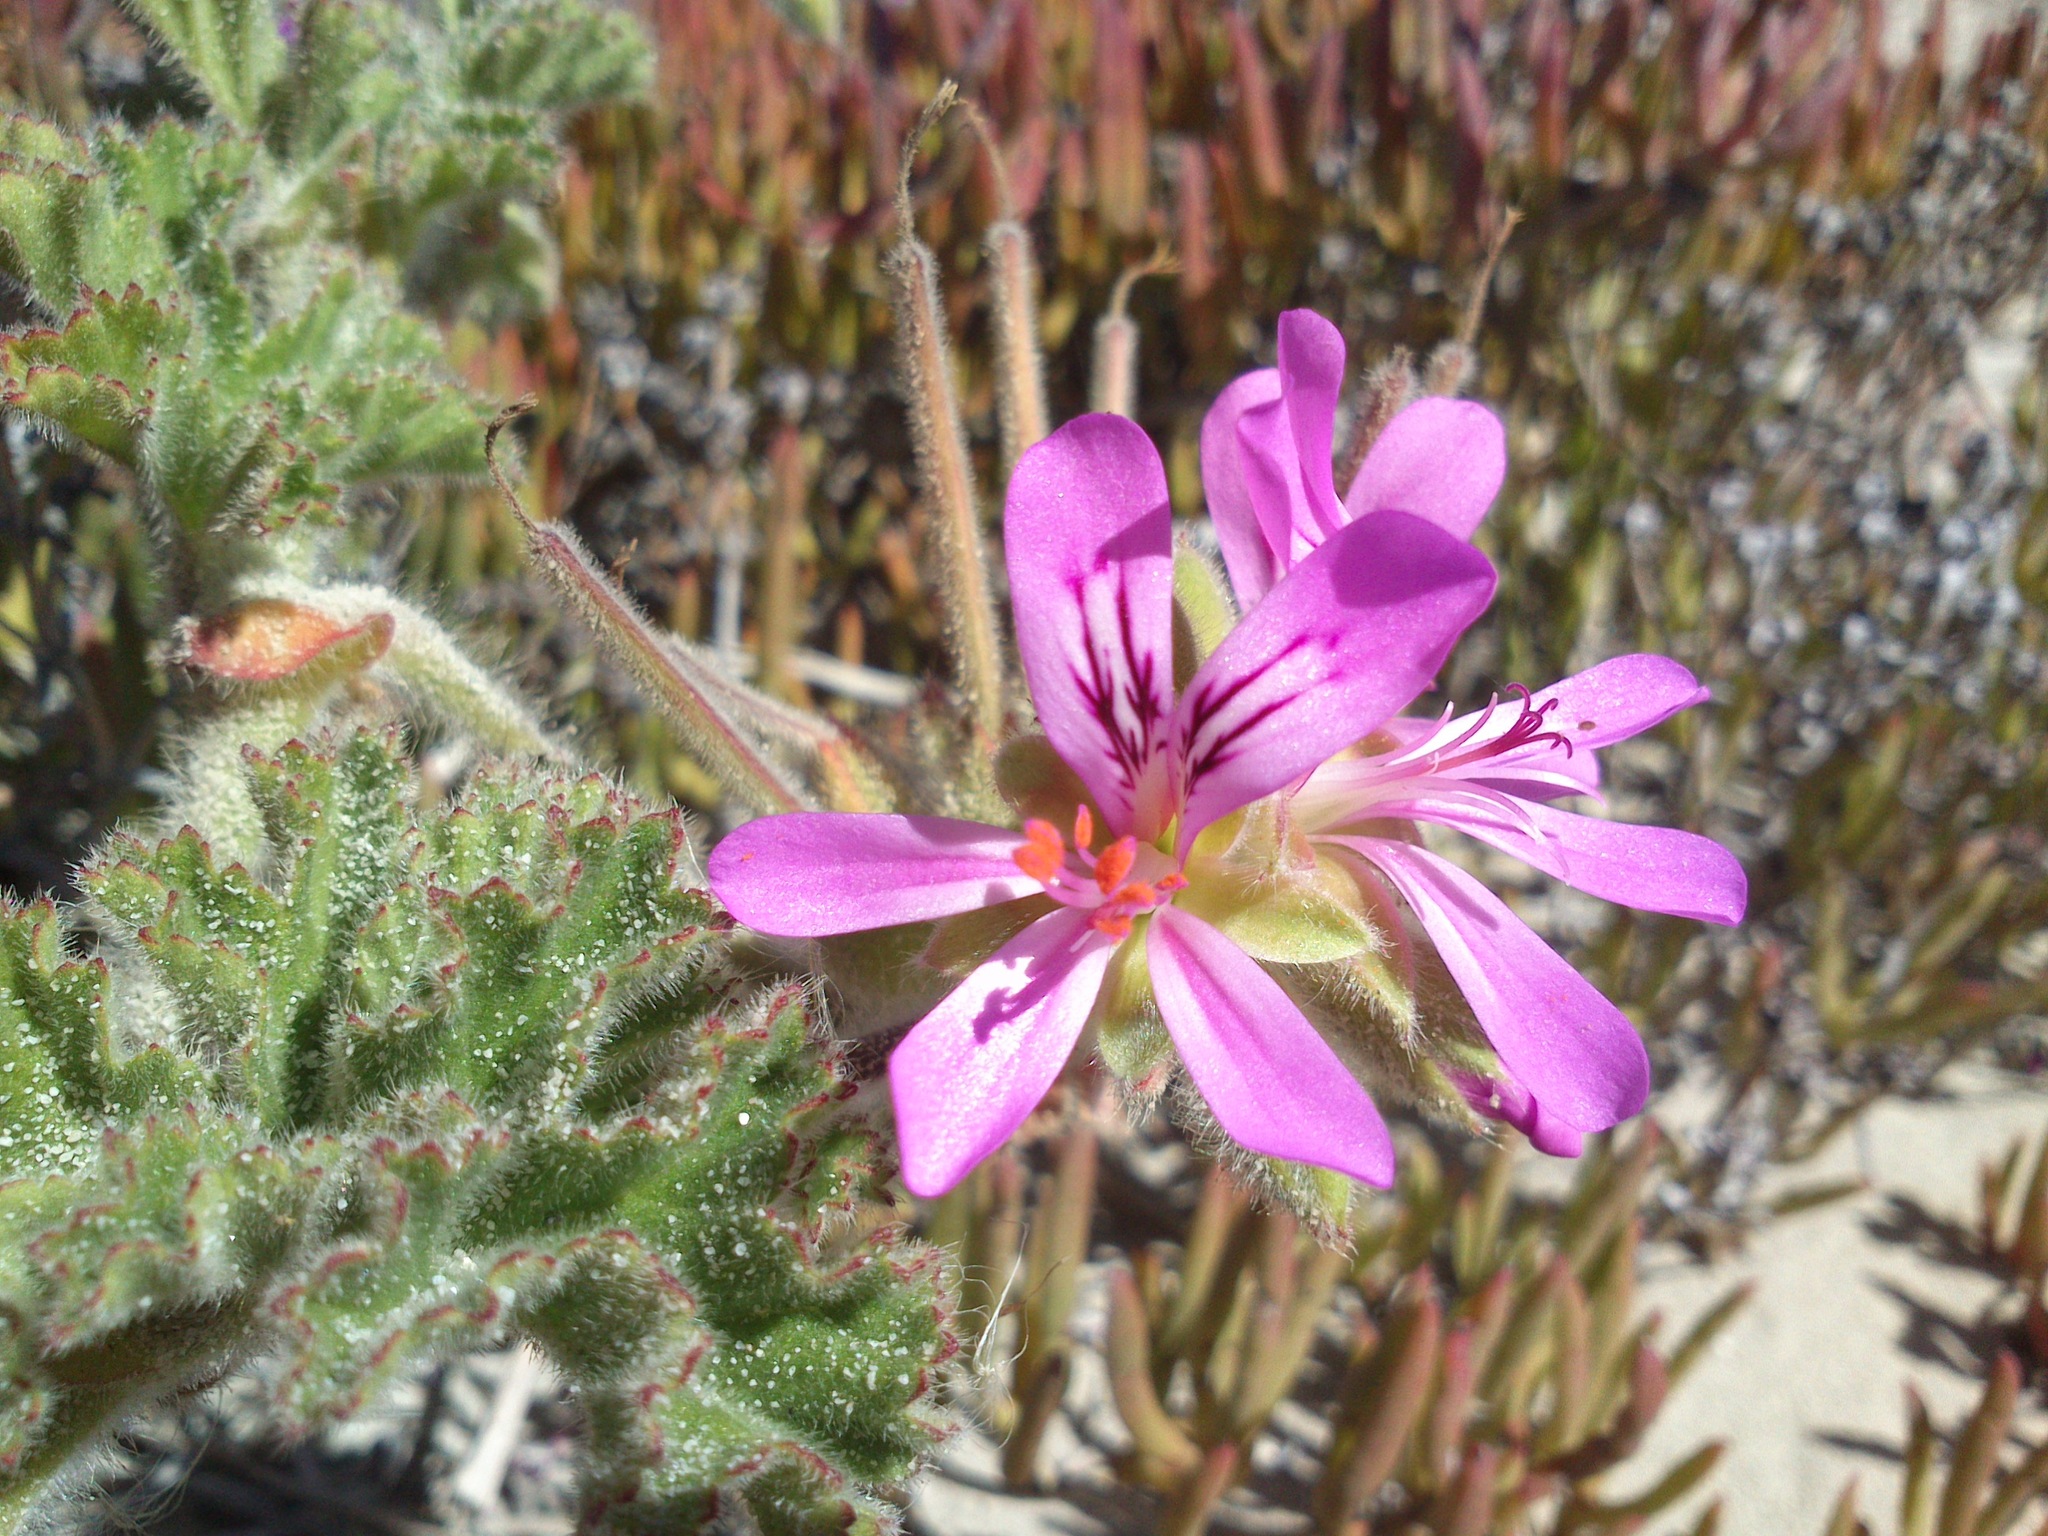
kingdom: Plantae
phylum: Tracheophyta
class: Magnoliopsida
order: Geraniales
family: Geraniaceae
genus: Pelargonium
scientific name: Pelargonium capitatum
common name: Rose scented geranium
